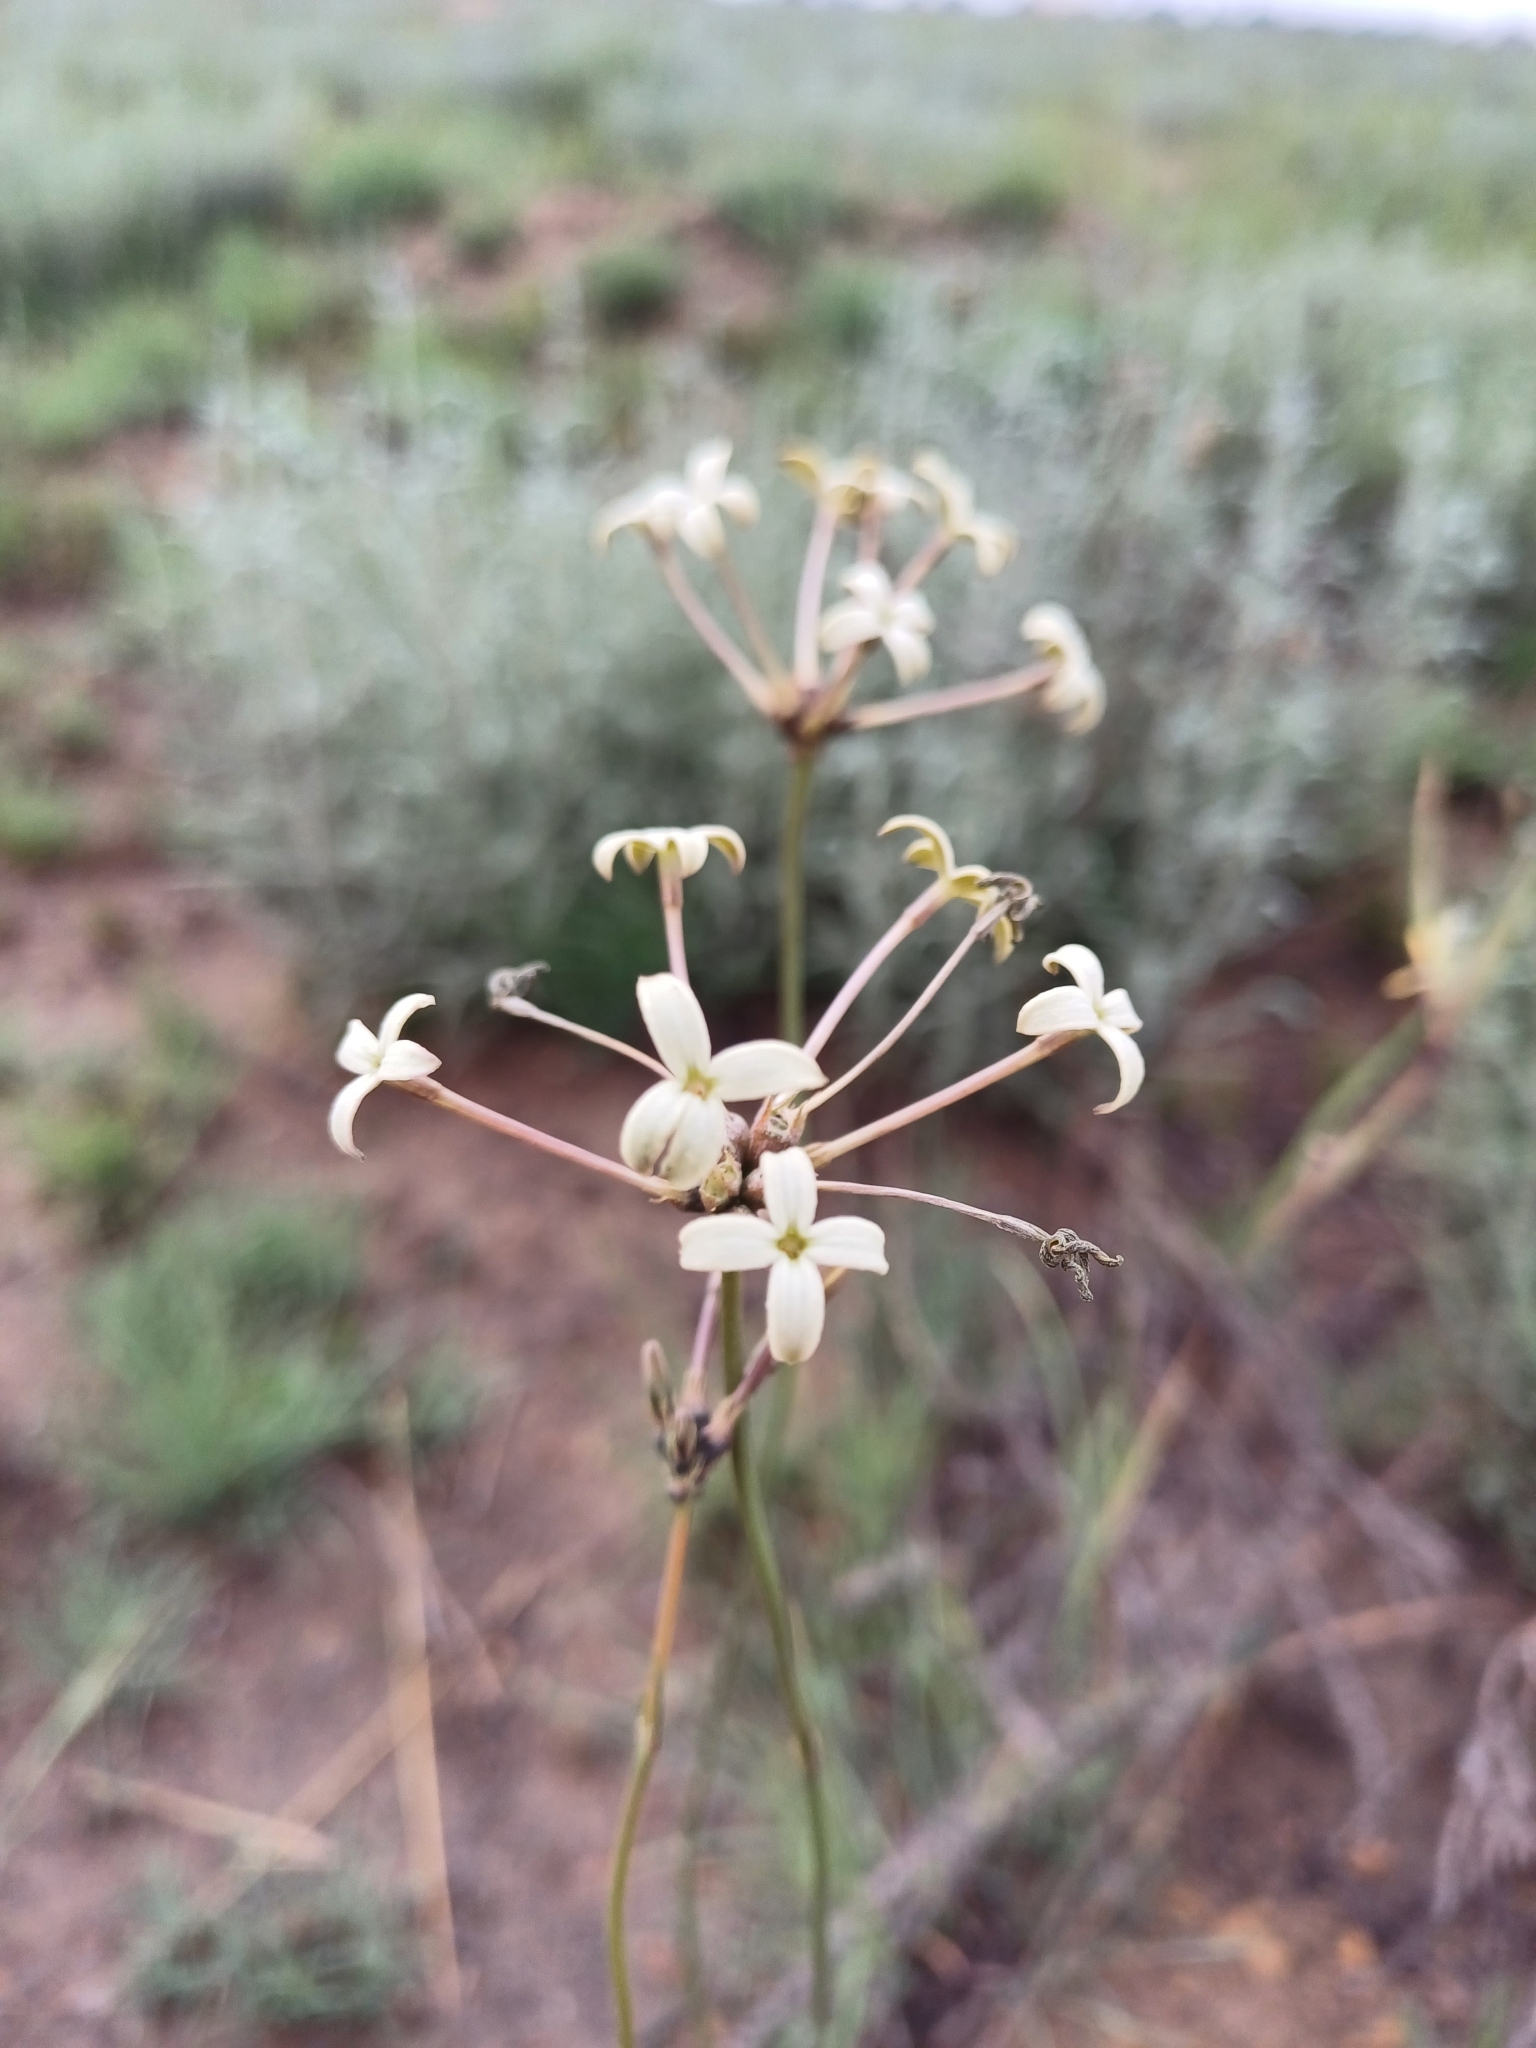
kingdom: Plantae
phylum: Tracheophyta
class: Magnoliopsida
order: Gentianales
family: Rubiaceae
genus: Kohautia
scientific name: Kohautia amatymbica
